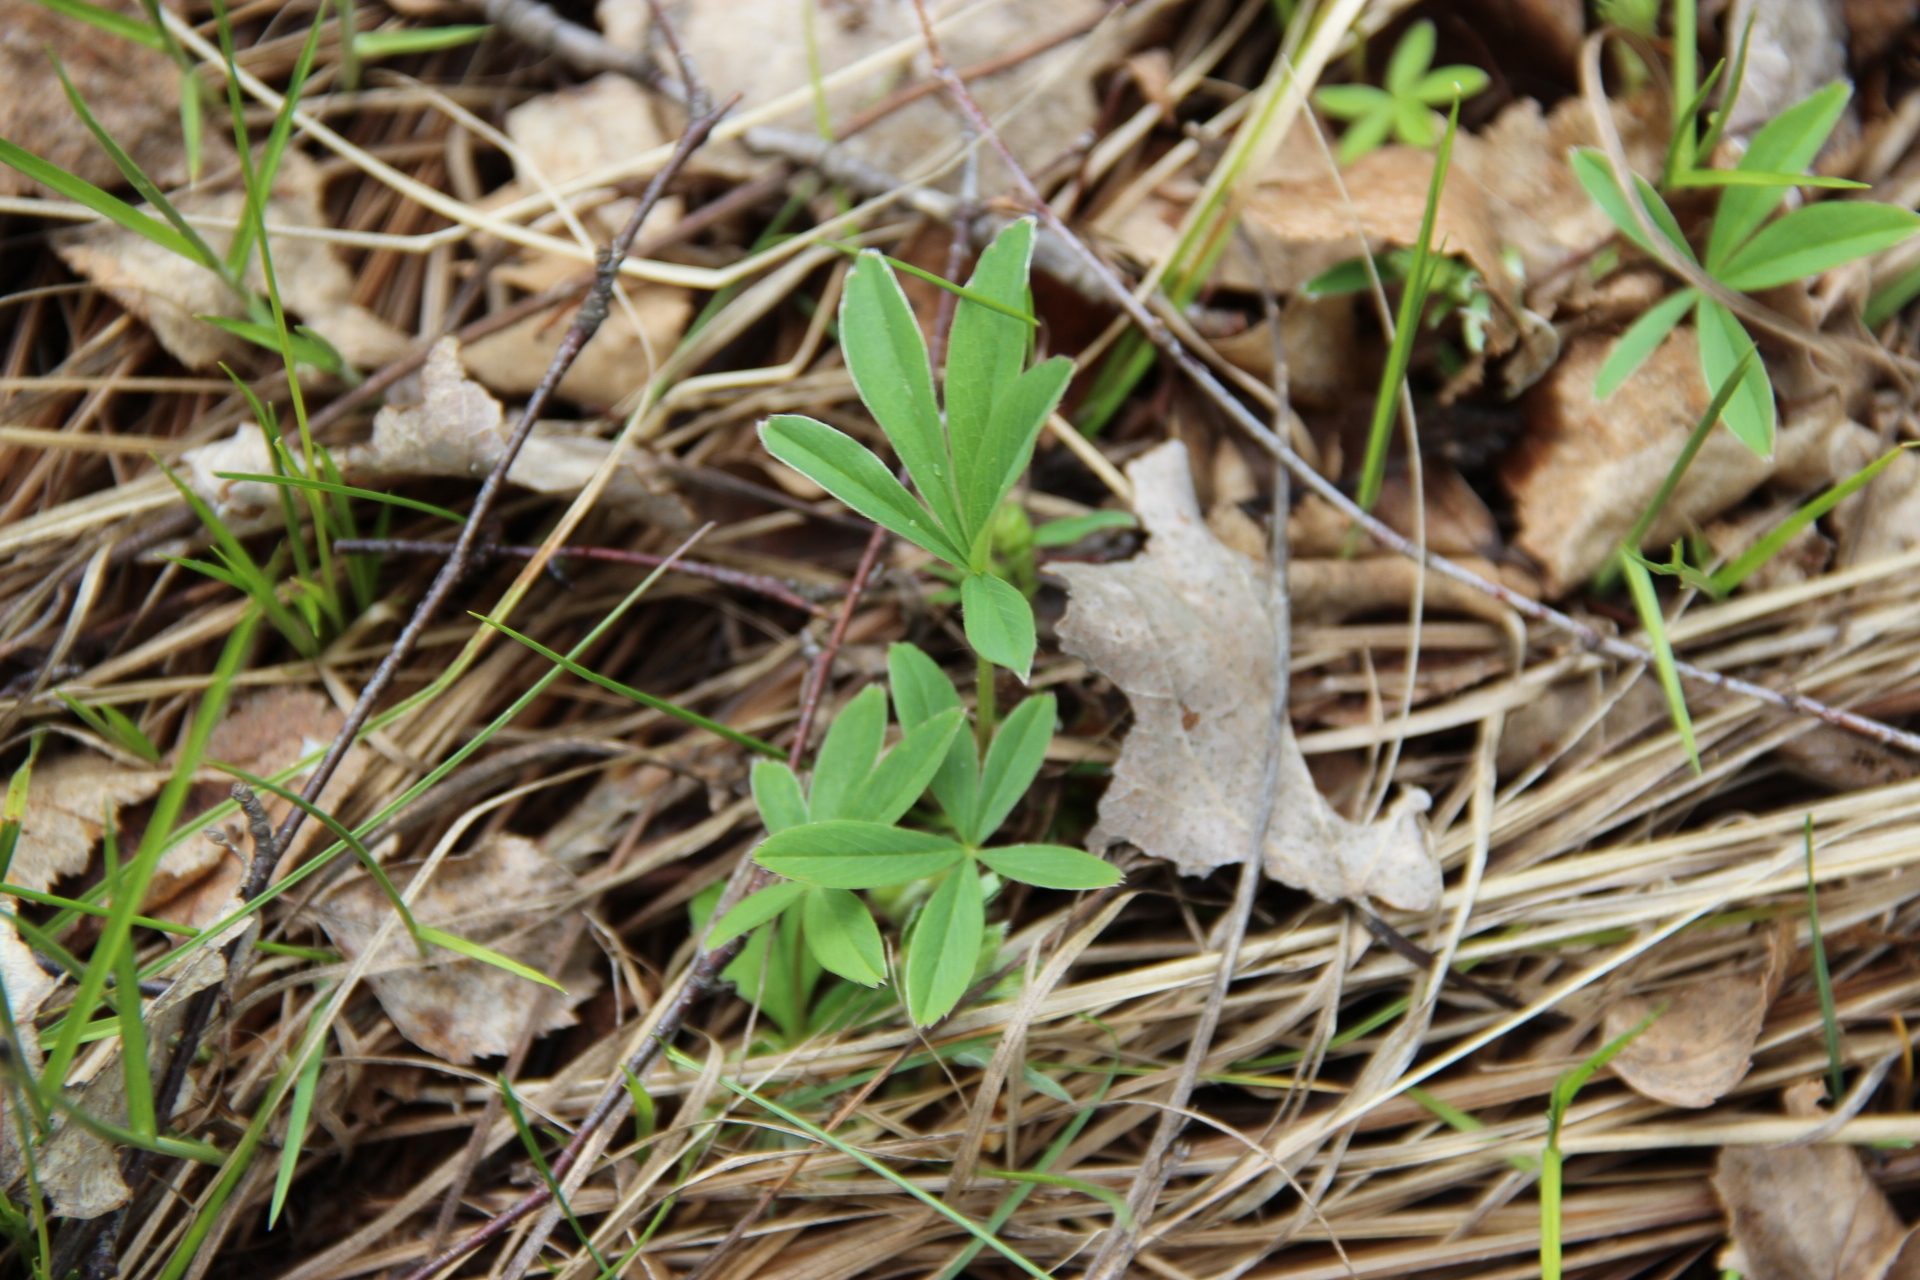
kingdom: Plantae
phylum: Tracheophyta
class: Magnoliopsida
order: Rosales
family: Rosaceae
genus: Potentilla
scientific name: Potentilla alba
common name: White cinquefoil
